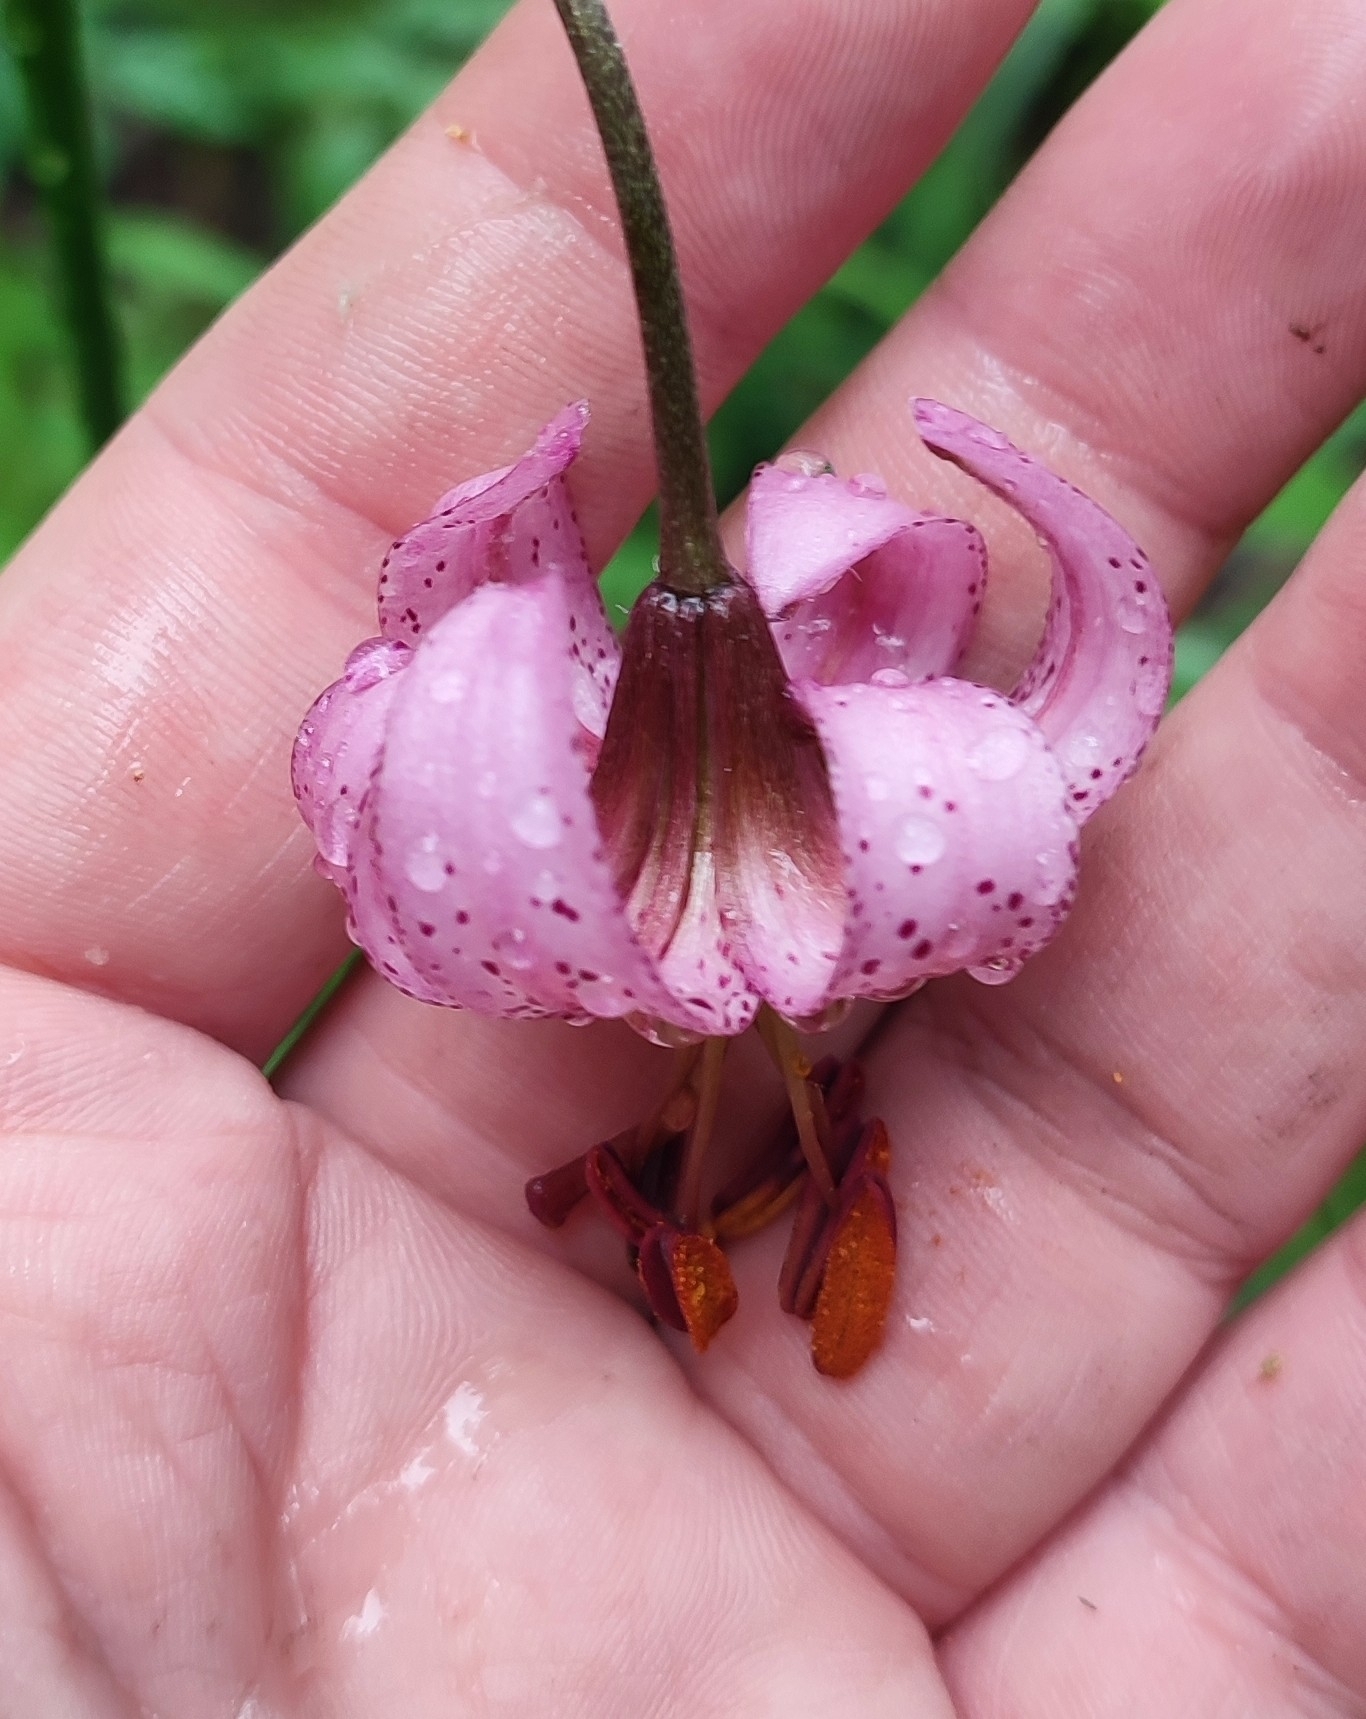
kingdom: Plantae
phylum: Tracheophyta
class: Liliopsida
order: Liliales
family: Liliaceae
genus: Lilium
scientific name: Lilium martagon
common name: Martagon lily
